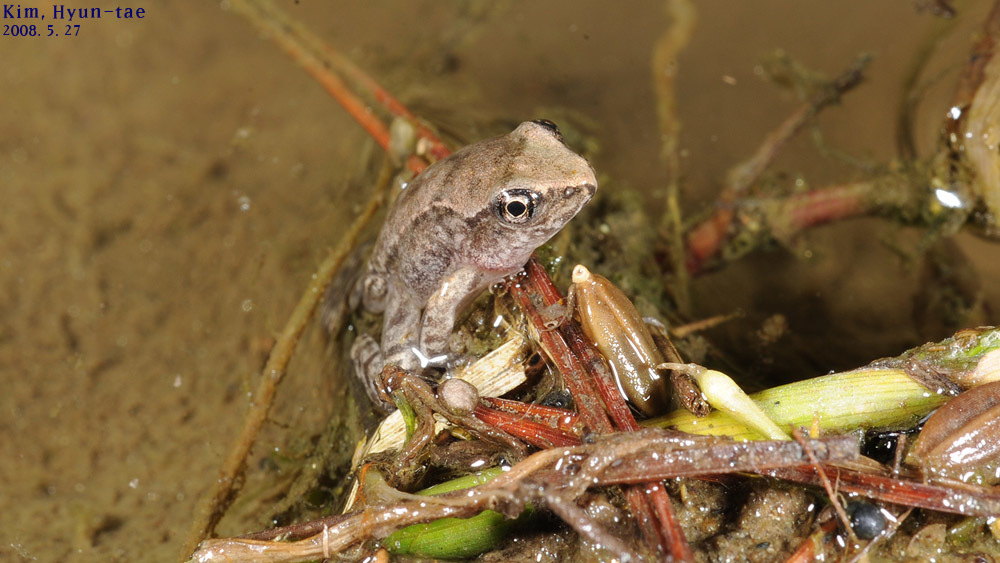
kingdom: Animalia
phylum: Chordata
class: Amphibia
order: Anura
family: Ranidae
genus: Rana
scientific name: Rana uenoi
